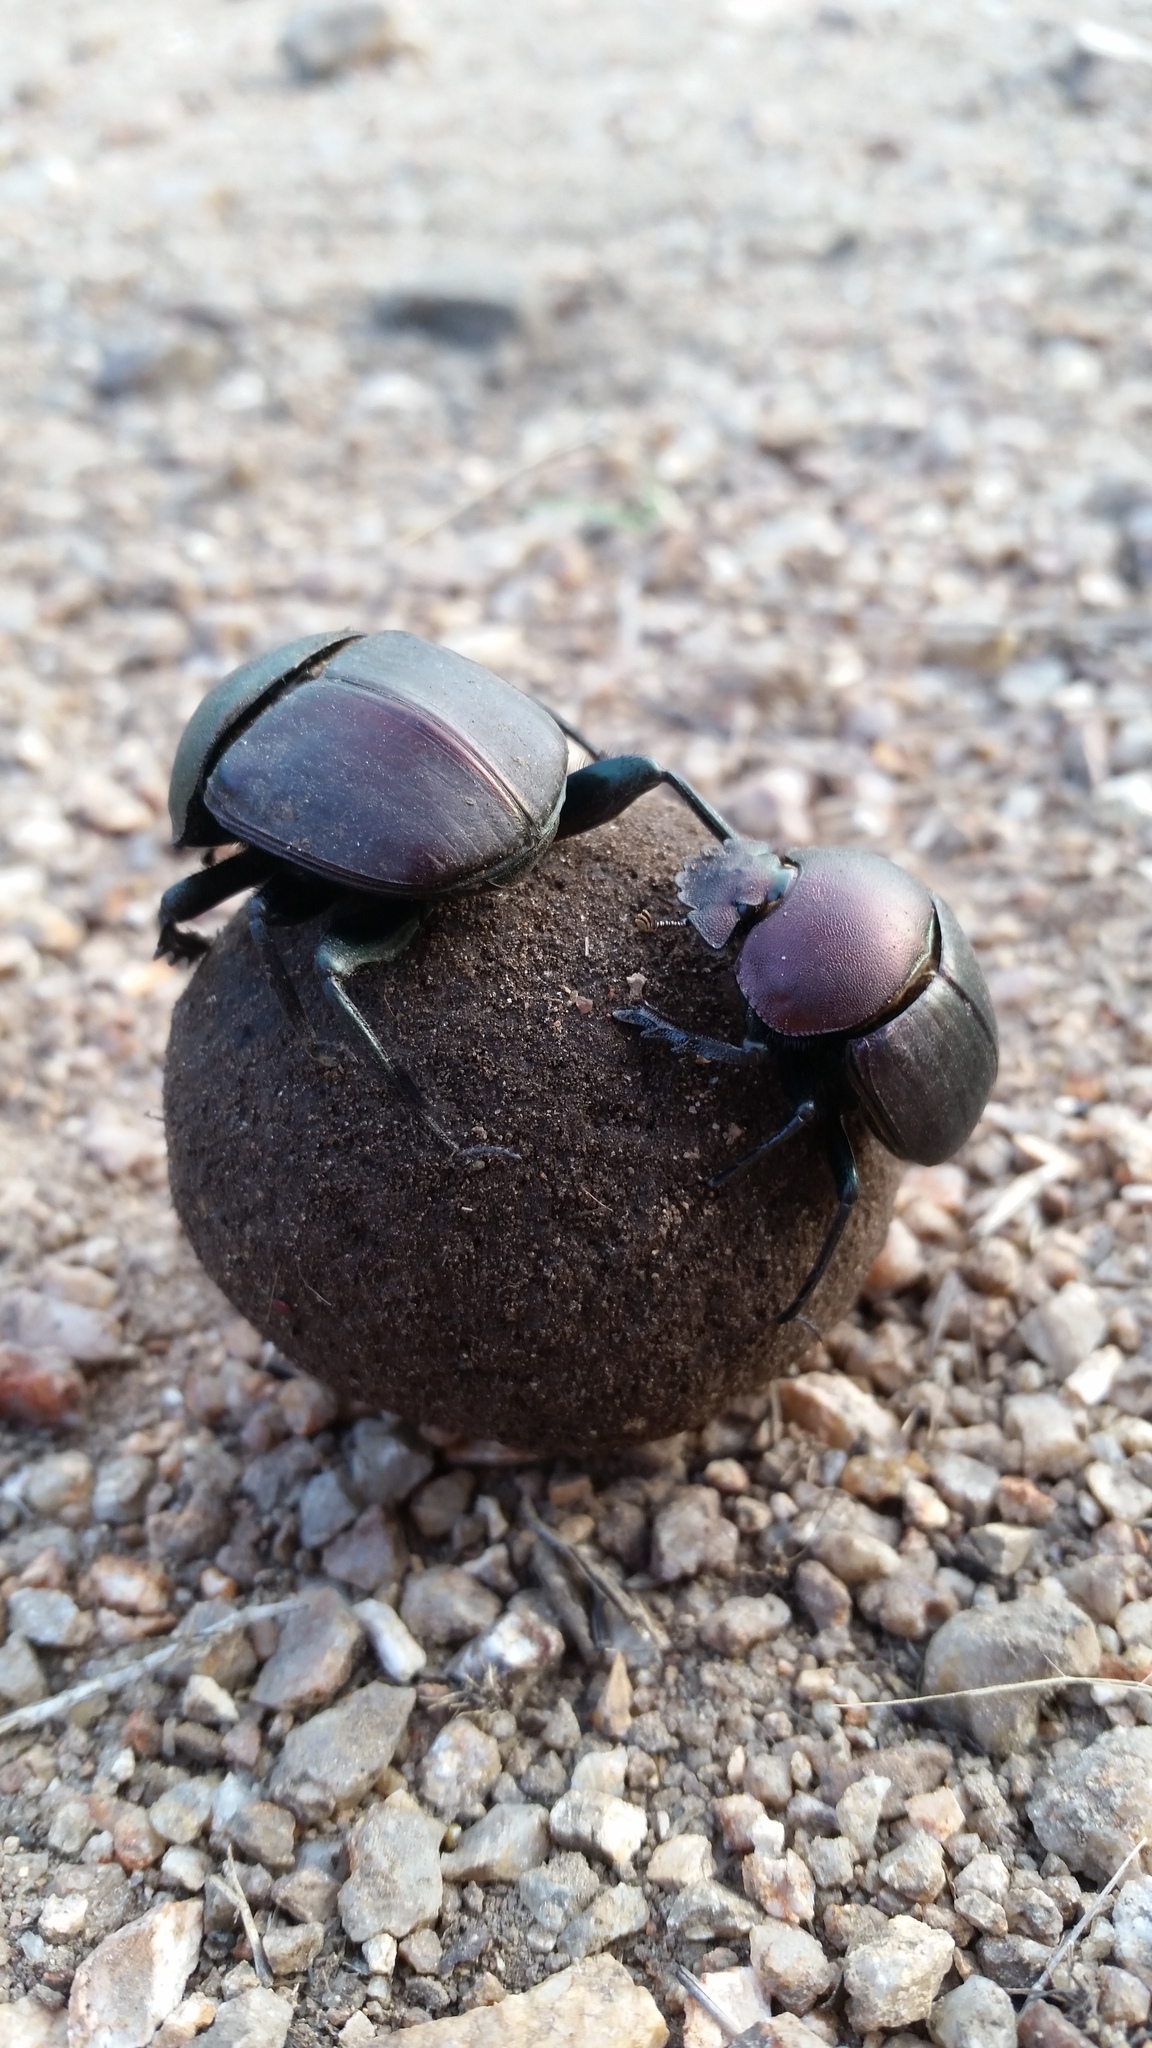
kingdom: Animalia
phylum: Arthropoda
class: Insecta
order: Coleoptera
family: Scarabaeidae
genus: Kheper
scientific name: Kheper nigroaeneus
